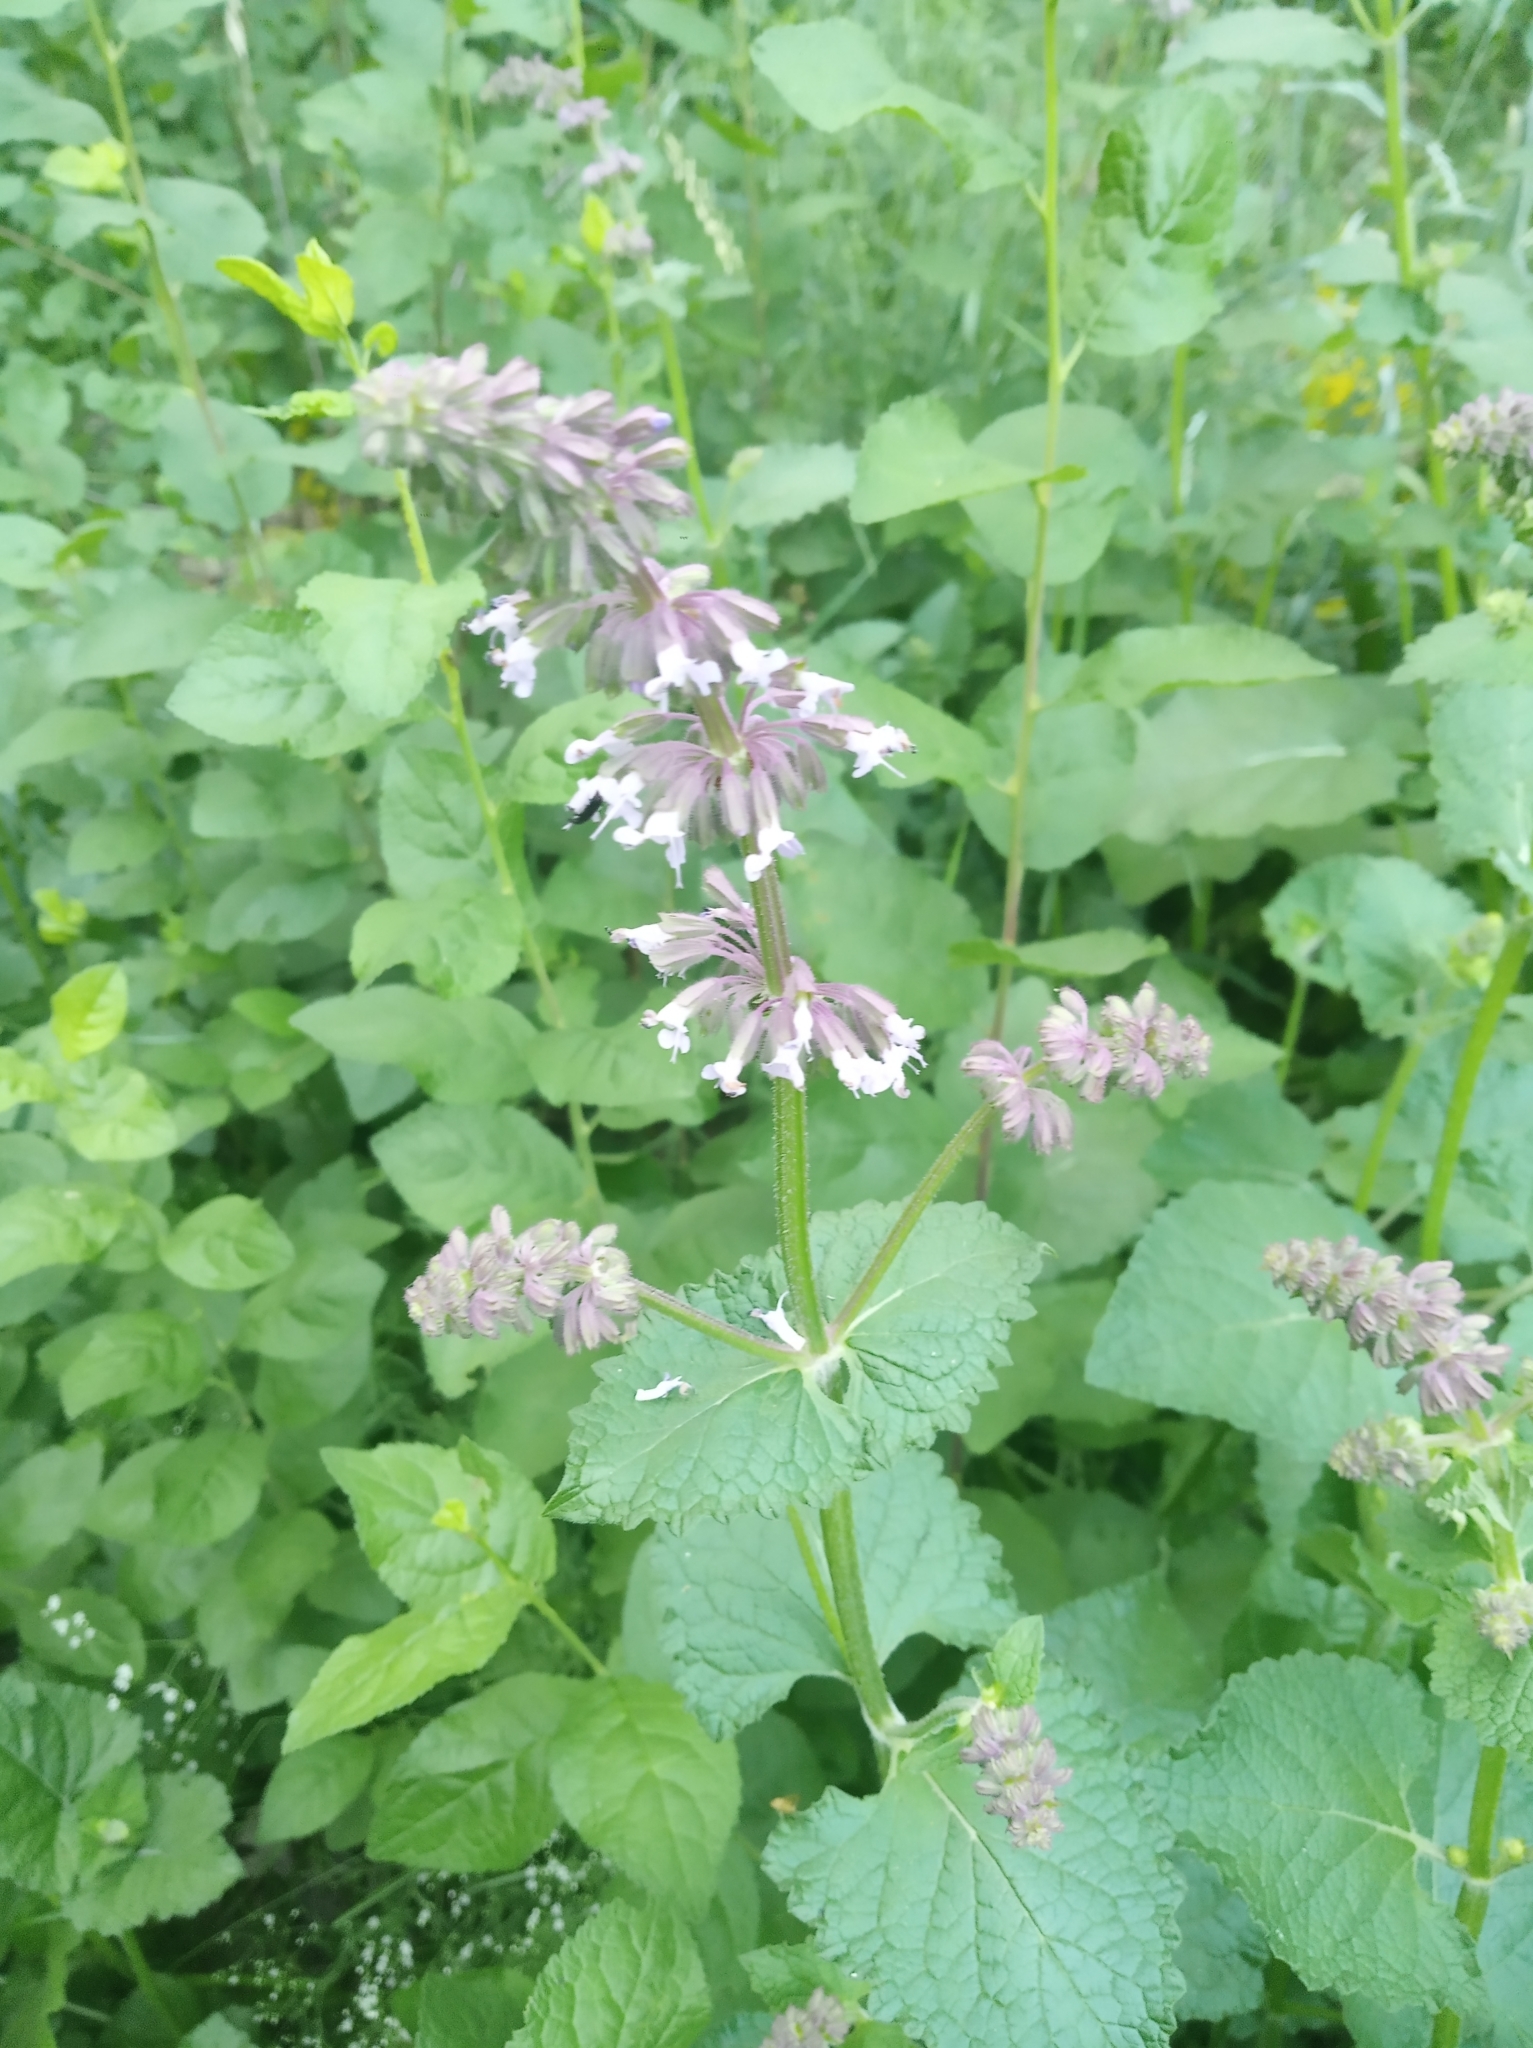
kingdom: Plantae
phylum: Tracheophyta
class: Magnoliopsida
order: Lamiales
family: Lamiaceae
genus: Salvia
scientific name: Salvia verticillata
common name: Whorled clary
